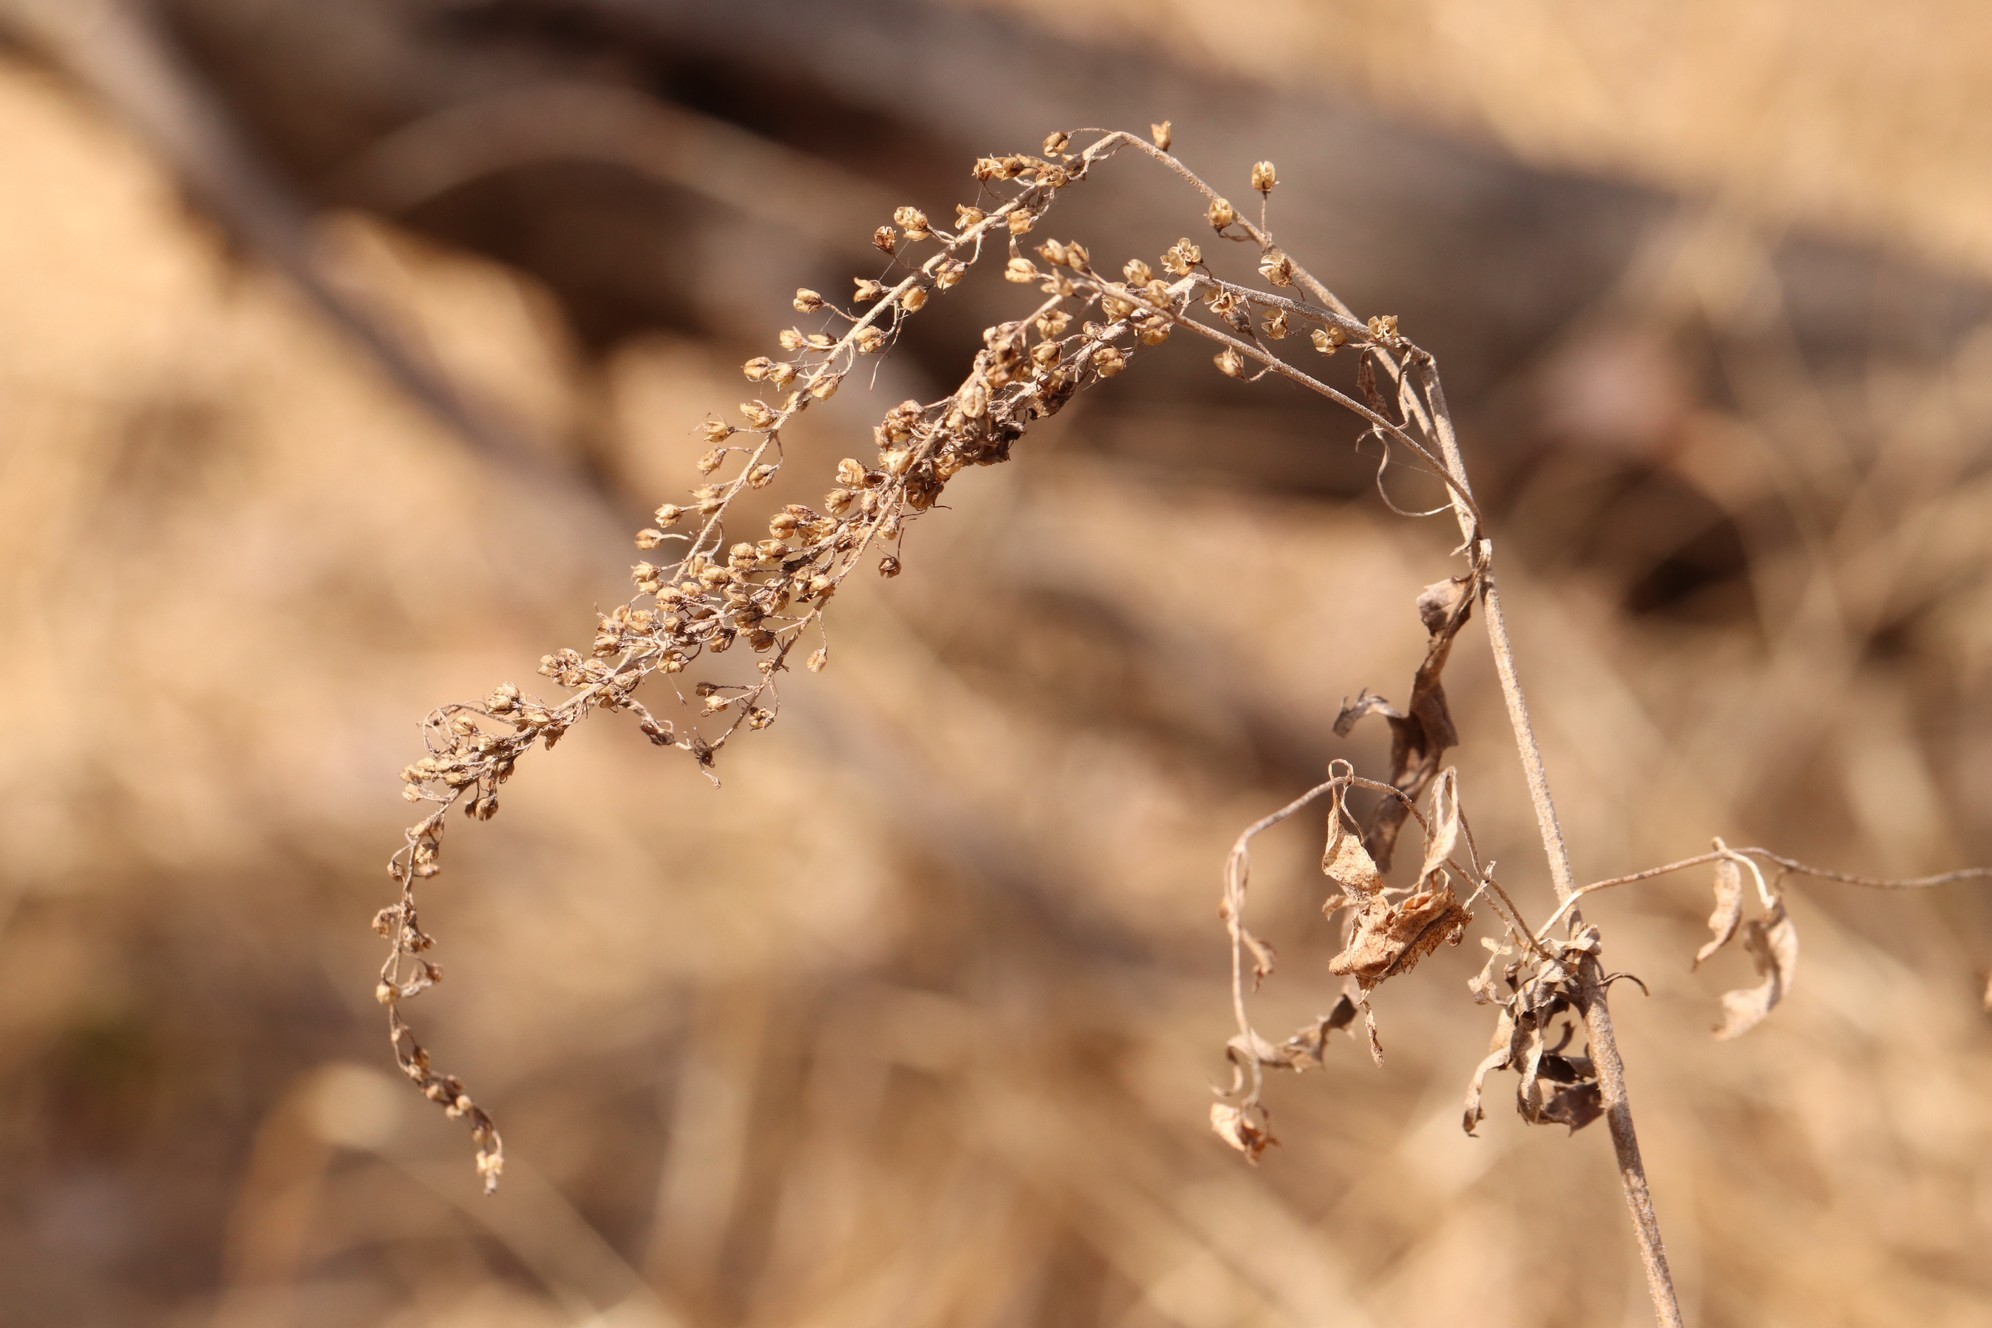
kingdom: Plantae
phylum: Tracheophyta
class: Magnoliopsida
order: Lamiales
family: Plantaginaceae
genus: Veronica
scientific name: Veronica longifolia
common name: Garden speedwell
